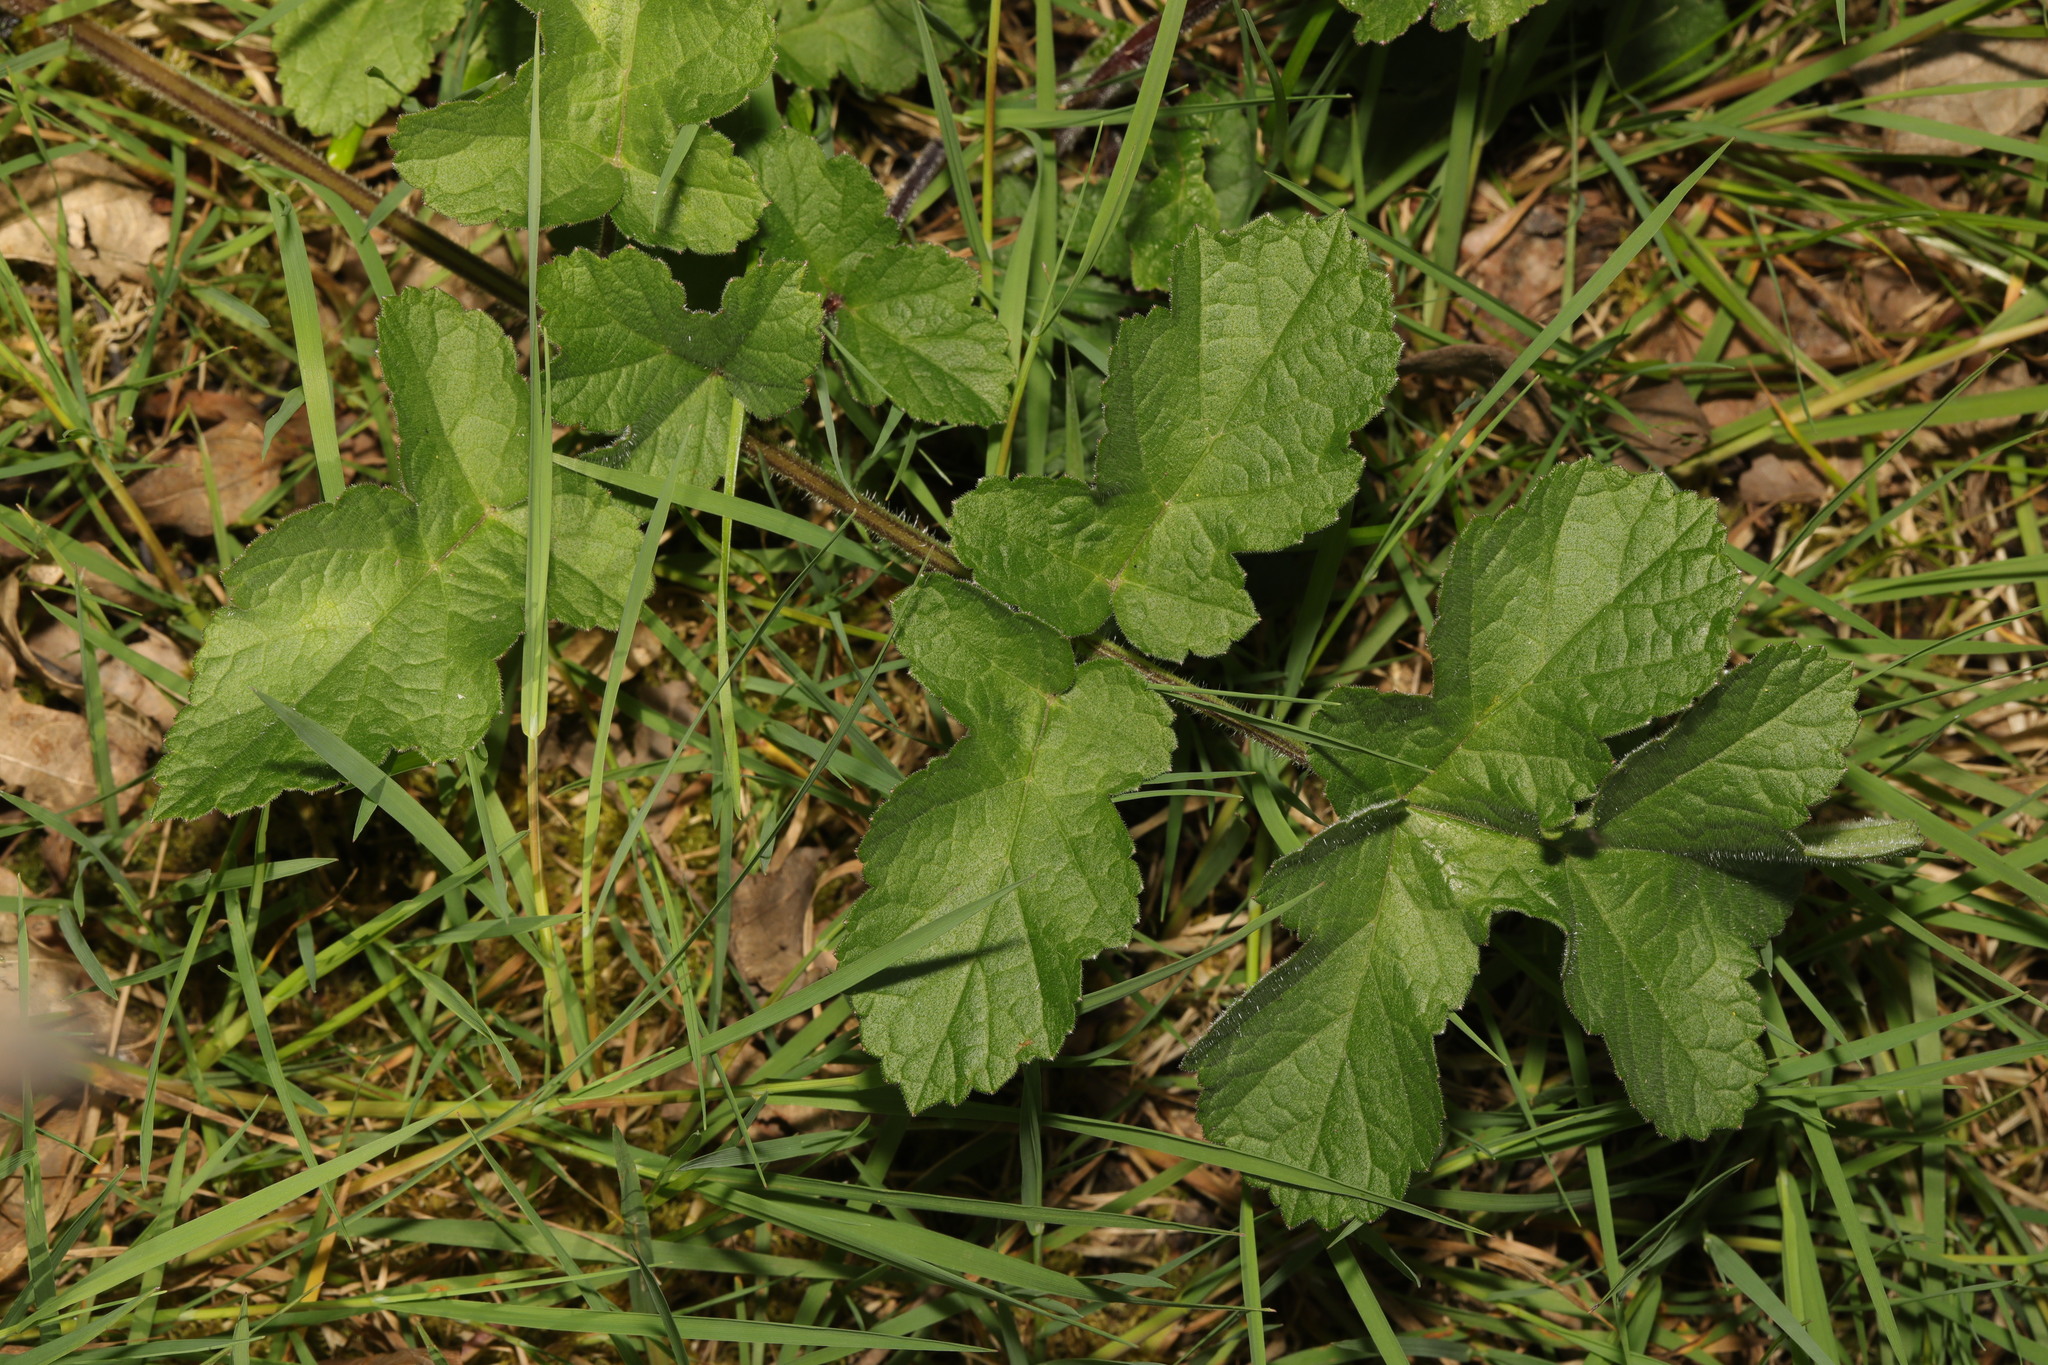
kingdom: Plantae
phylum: Tracheophyta
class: Magnoliopsida
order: Apiales
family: Apiaceae
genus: Heracleum
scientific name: Heracleum sphondylium
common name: Hogweed
